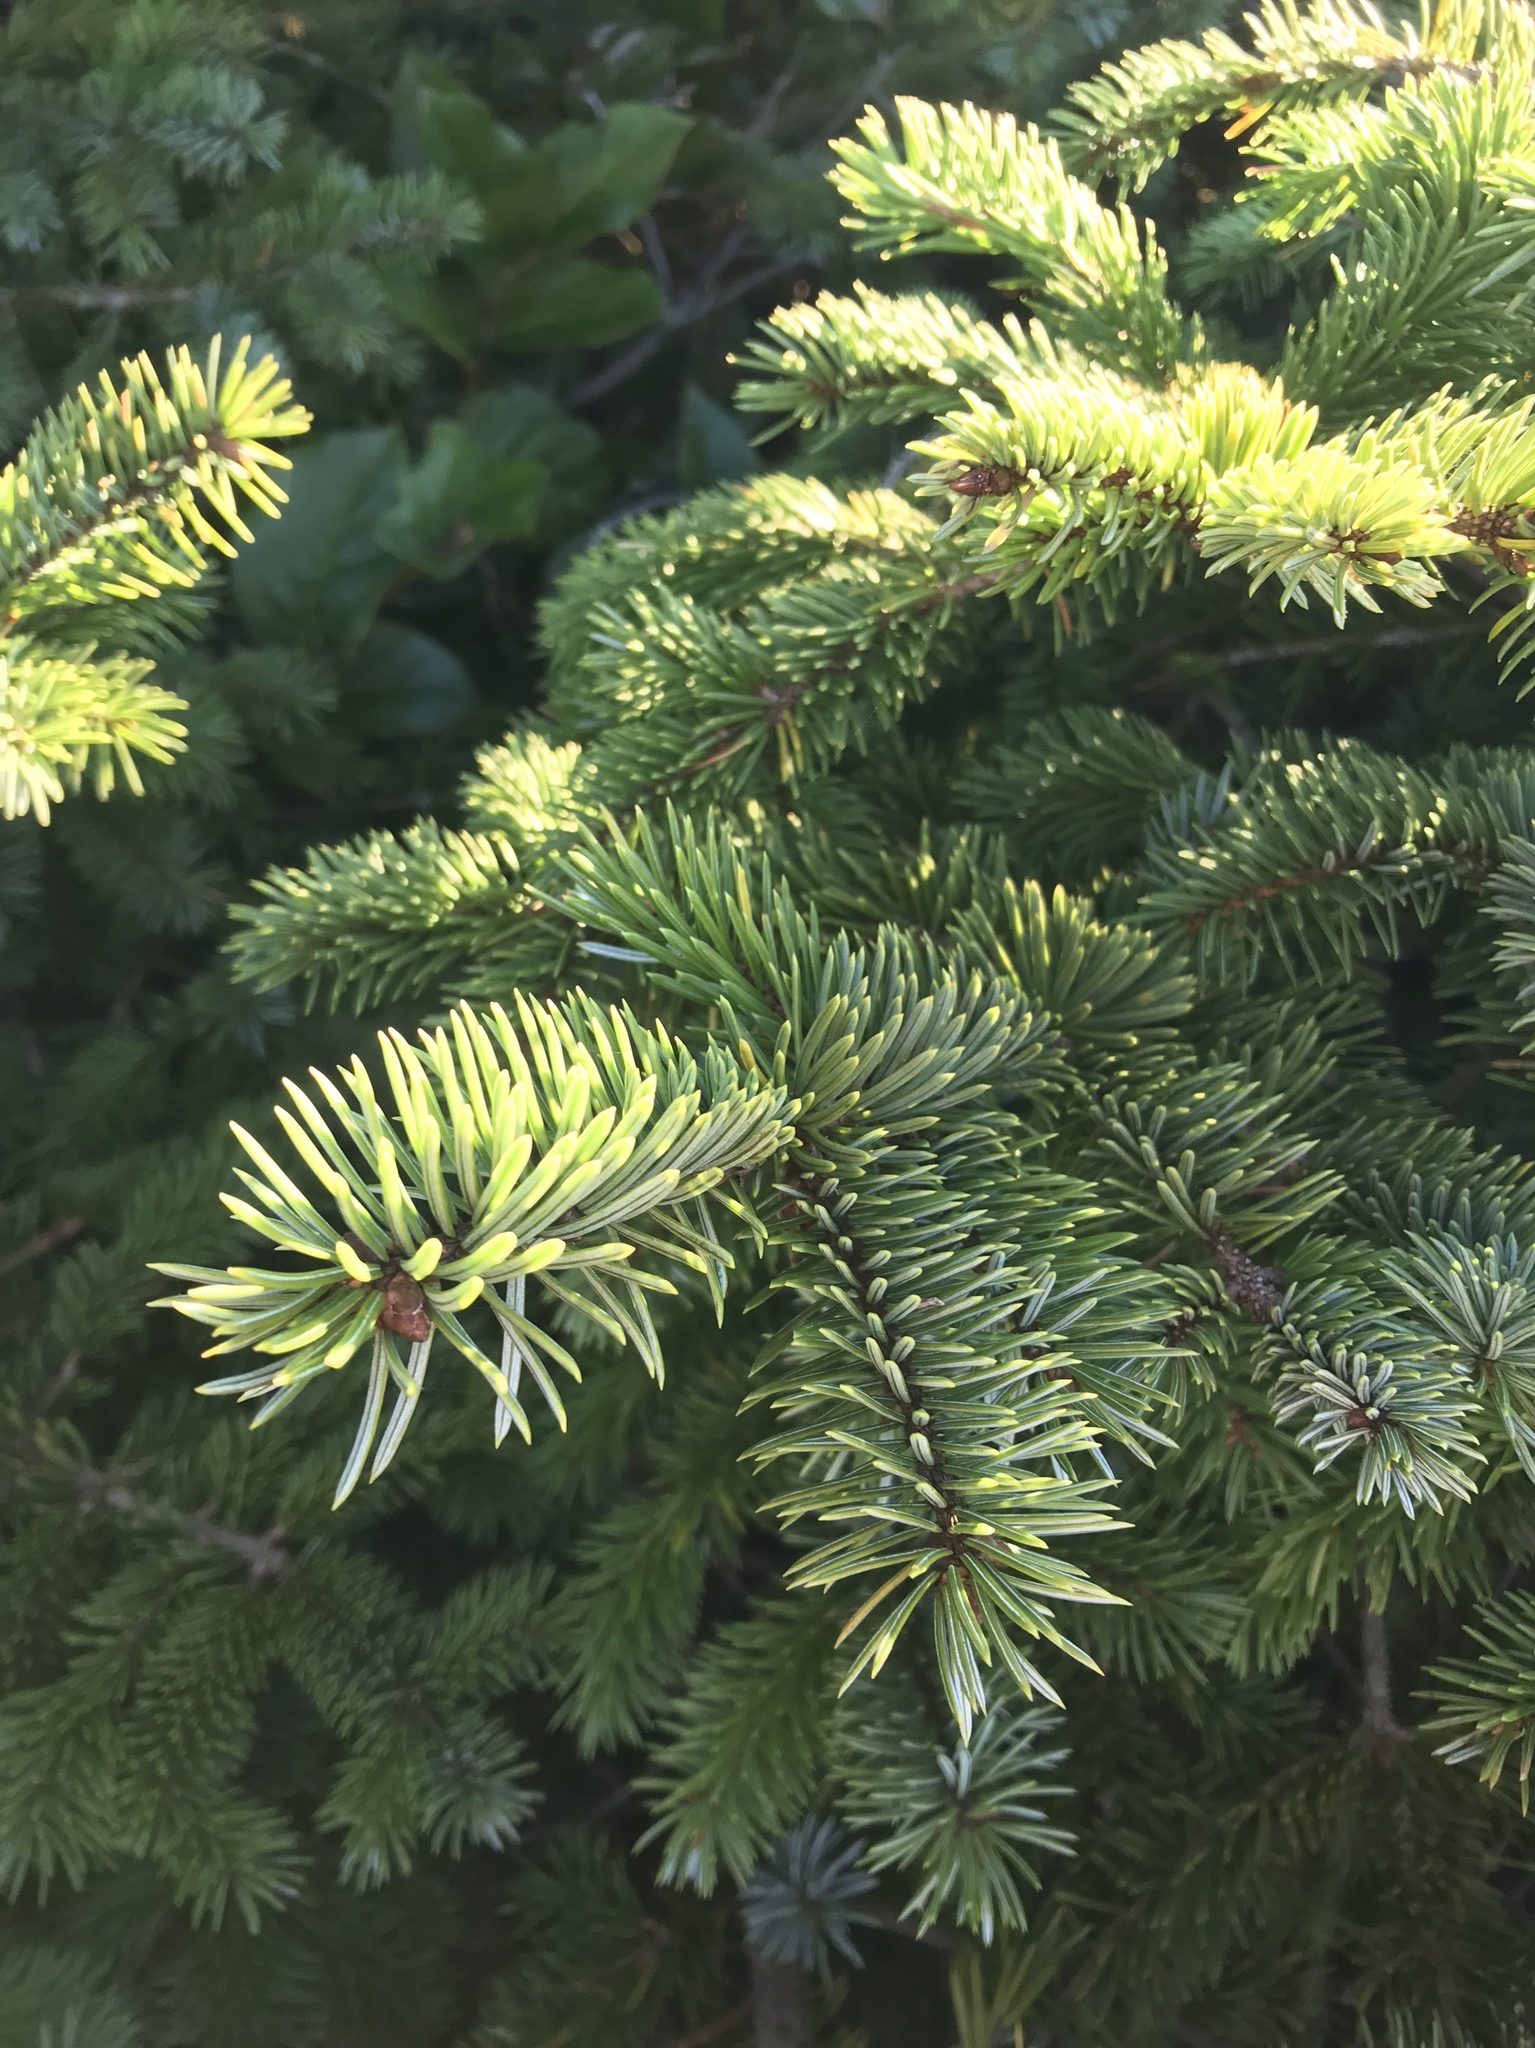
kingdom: Plantae
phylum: Tracheophyta
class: Pinopsida
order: Pinales
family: Pinaceae
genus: Picea
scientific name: Picea sitchensis
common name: Sitka spruce
